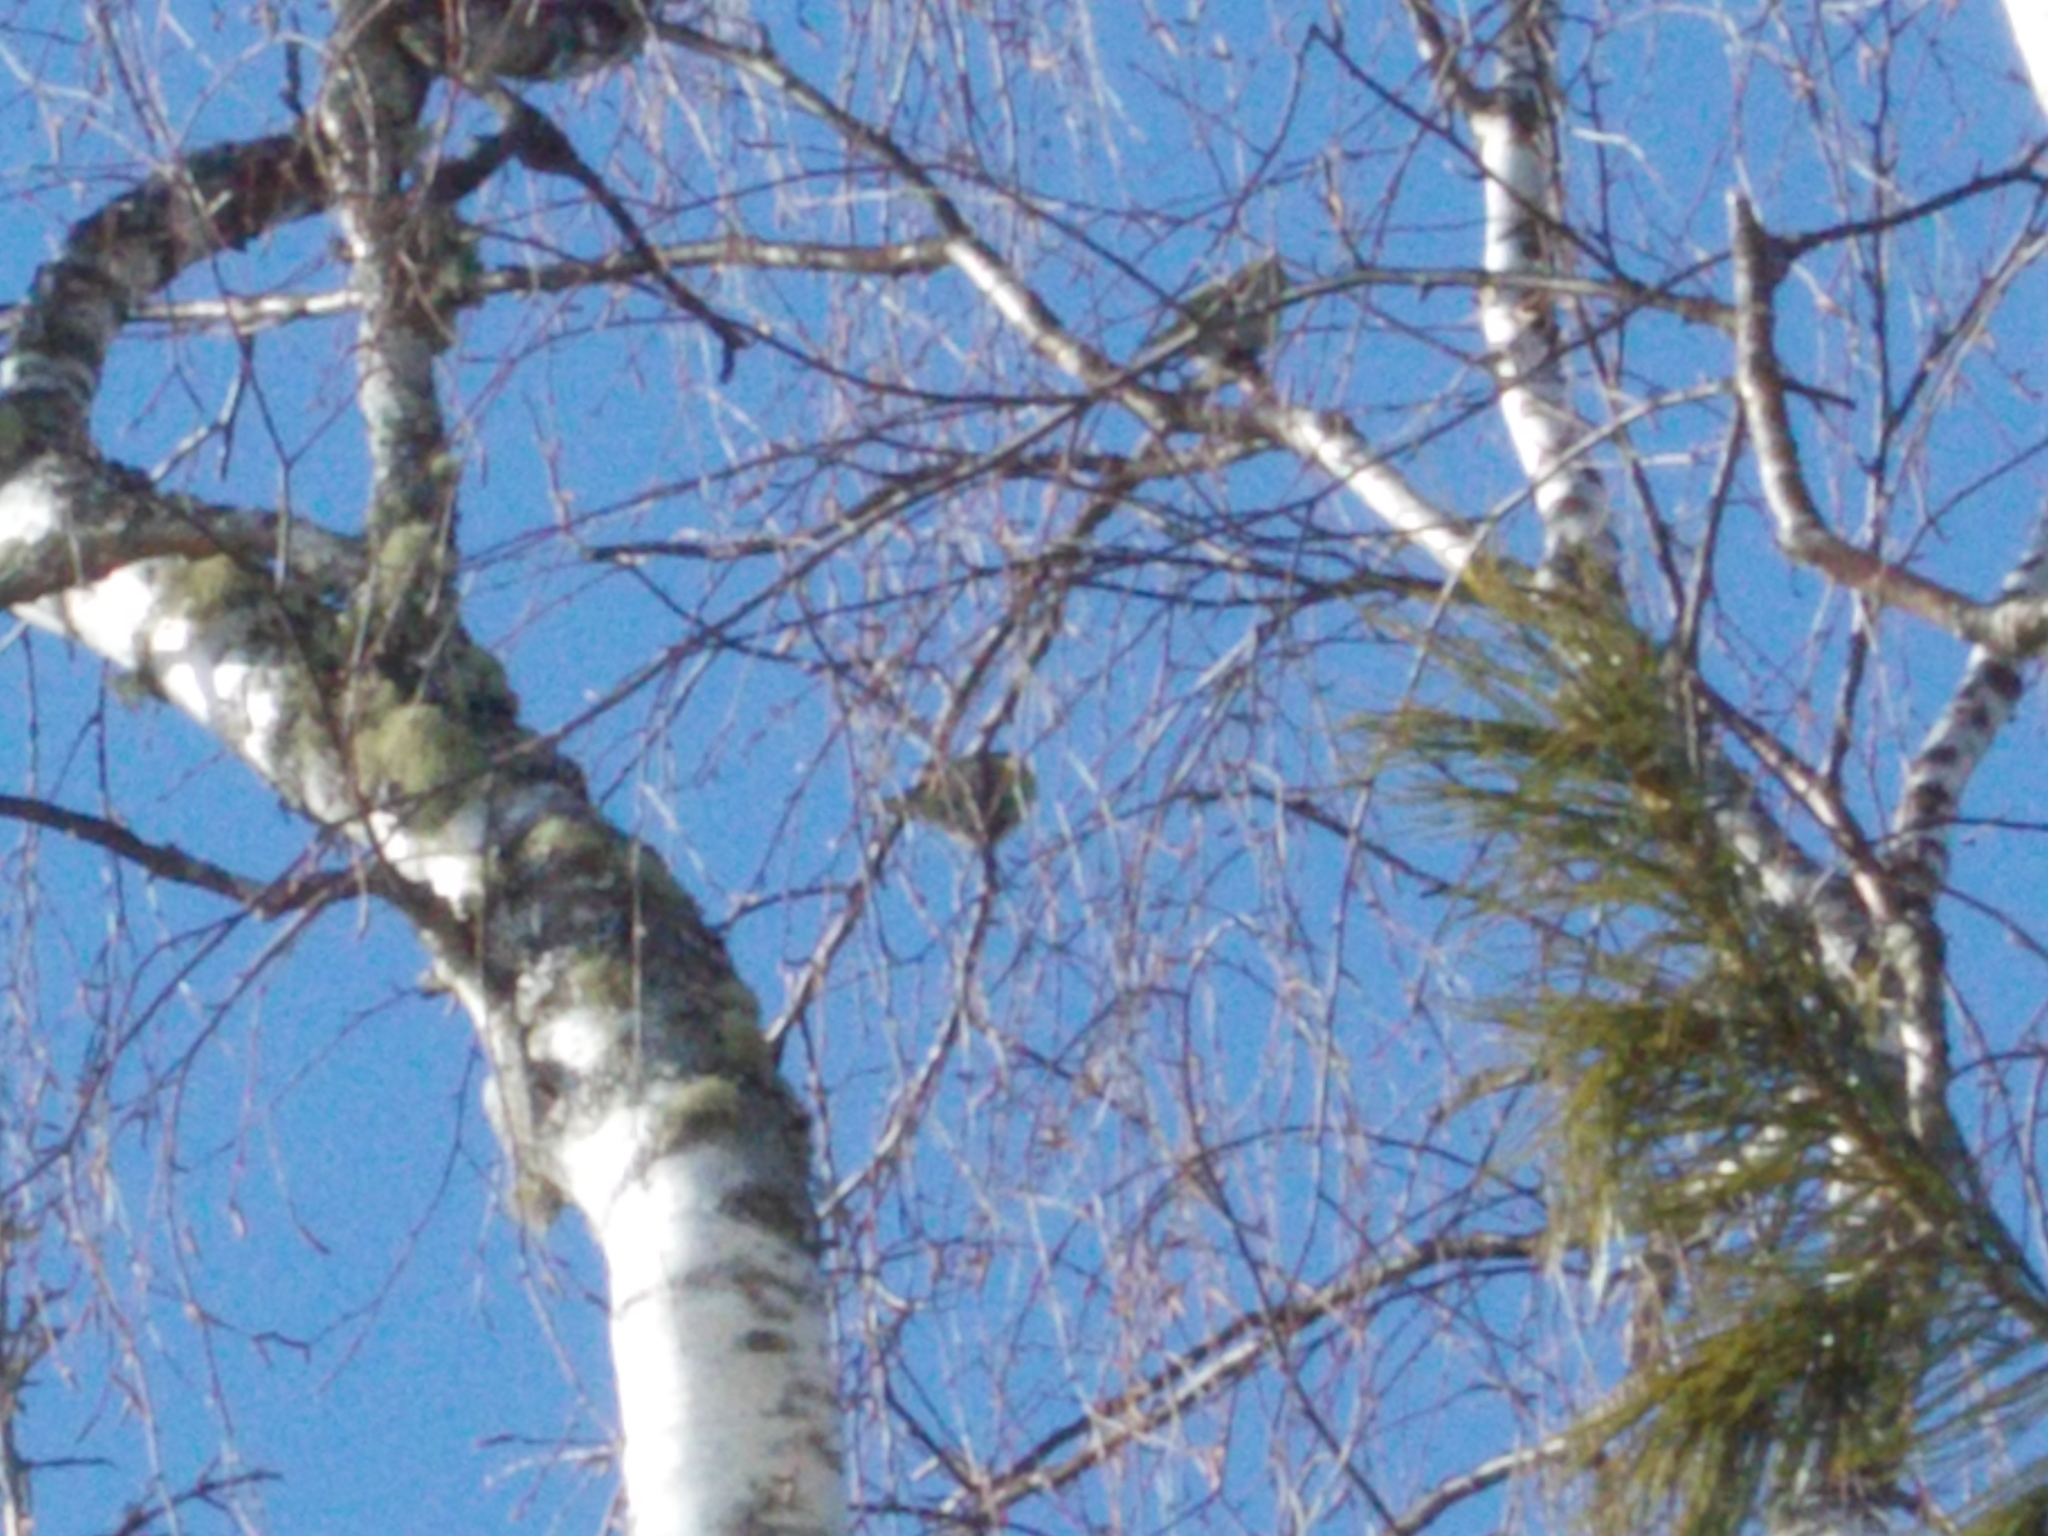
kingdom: Animalia
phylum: Chordata
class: Aves
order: Passeriformes
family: Fringillidae
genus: Spinus
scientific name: Spinus spinus
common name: Eurasian siskin
